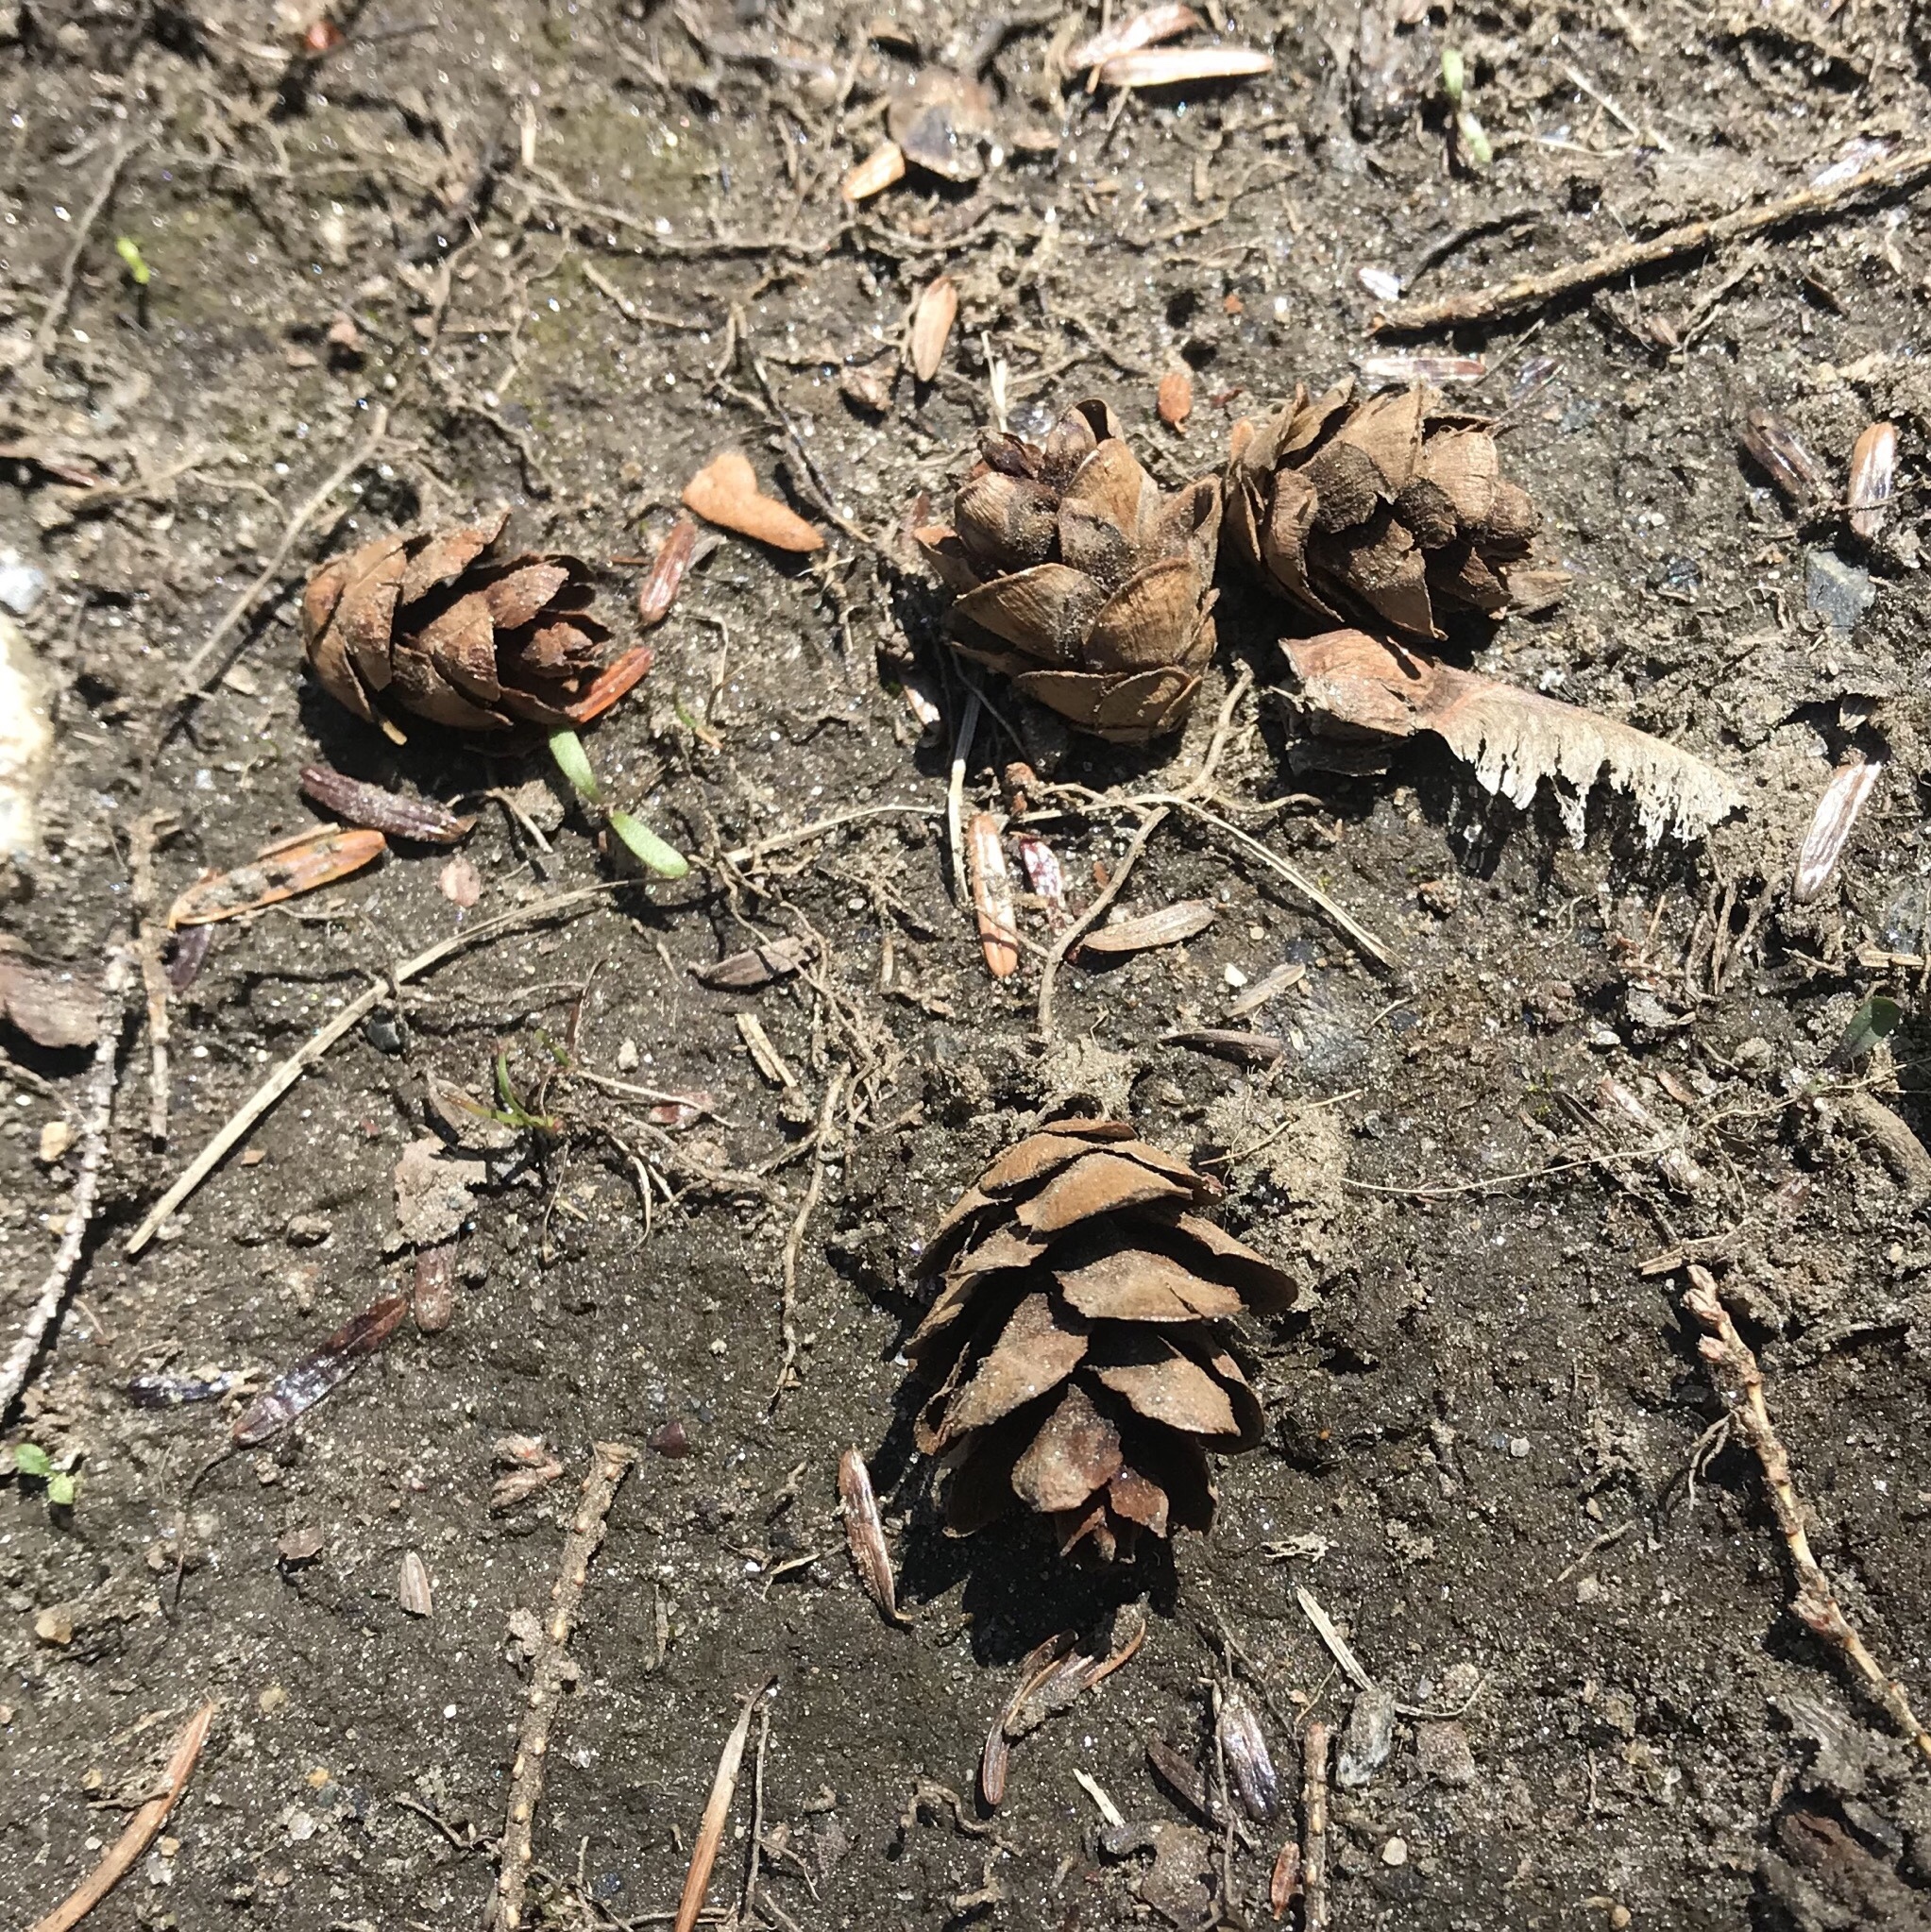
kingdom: Plantae
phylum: Tracheophyta
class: Pinopsida
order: Pinales
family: Pinaceae
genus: Tsuga
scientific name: Tsuga canadensis
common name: Eastern hemlock
